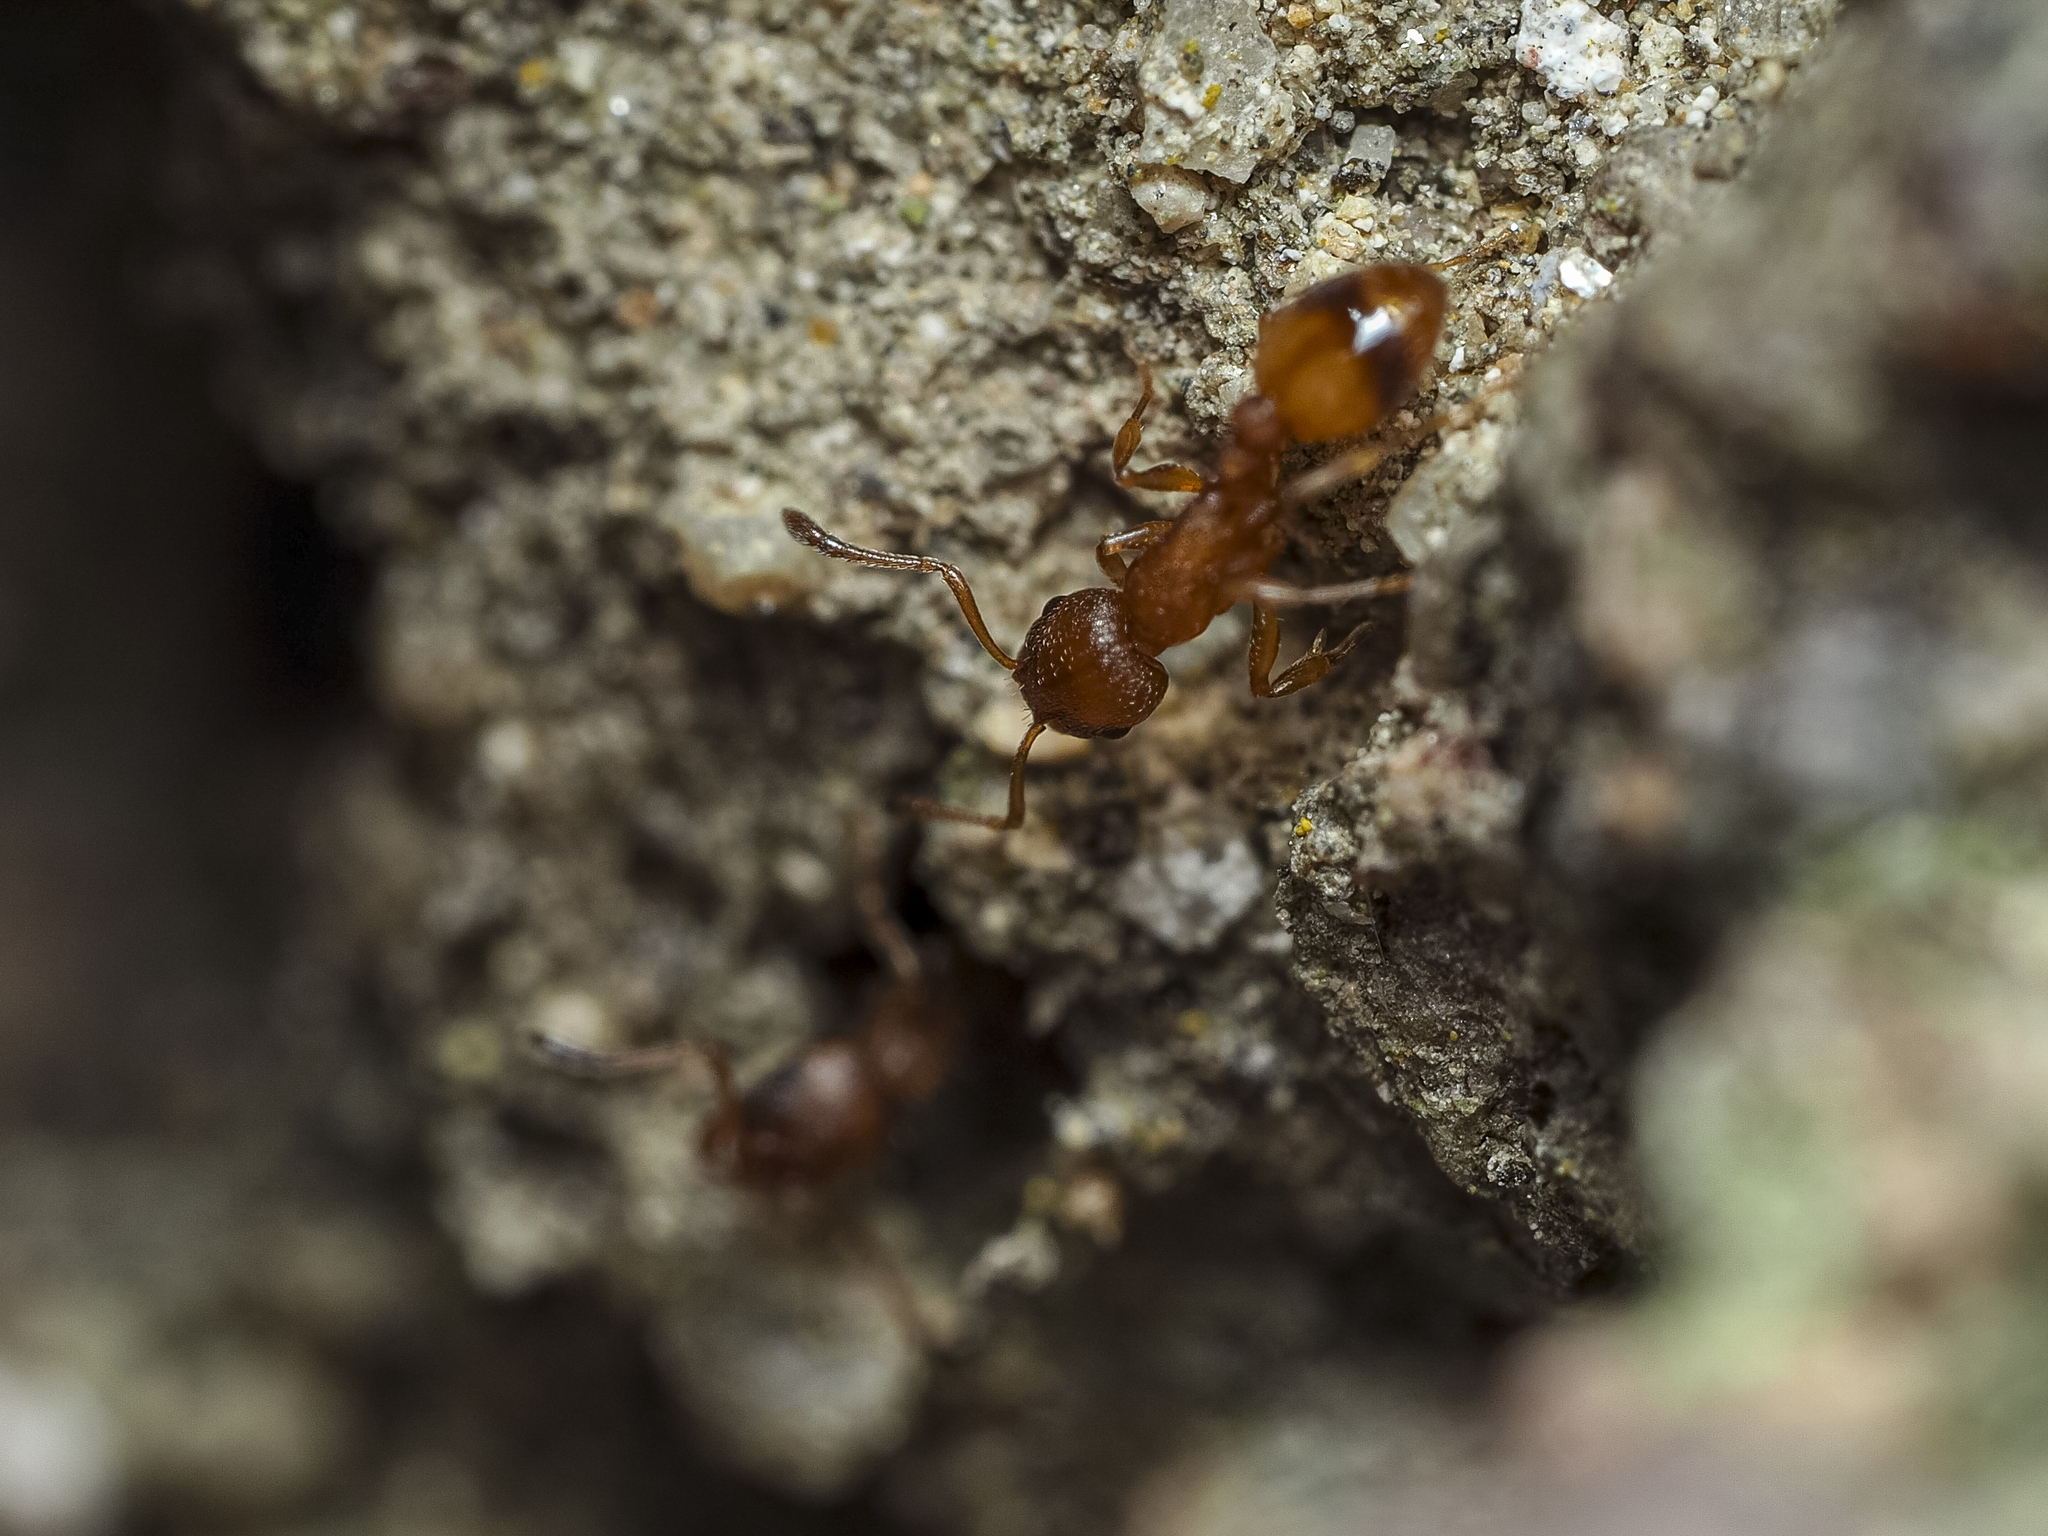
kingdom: Animalia
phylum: Arthropoda
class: Insecta
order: Hymenoptera
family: Formicidae
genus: Leptothorax
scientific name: Leptothorax unifasciatus
